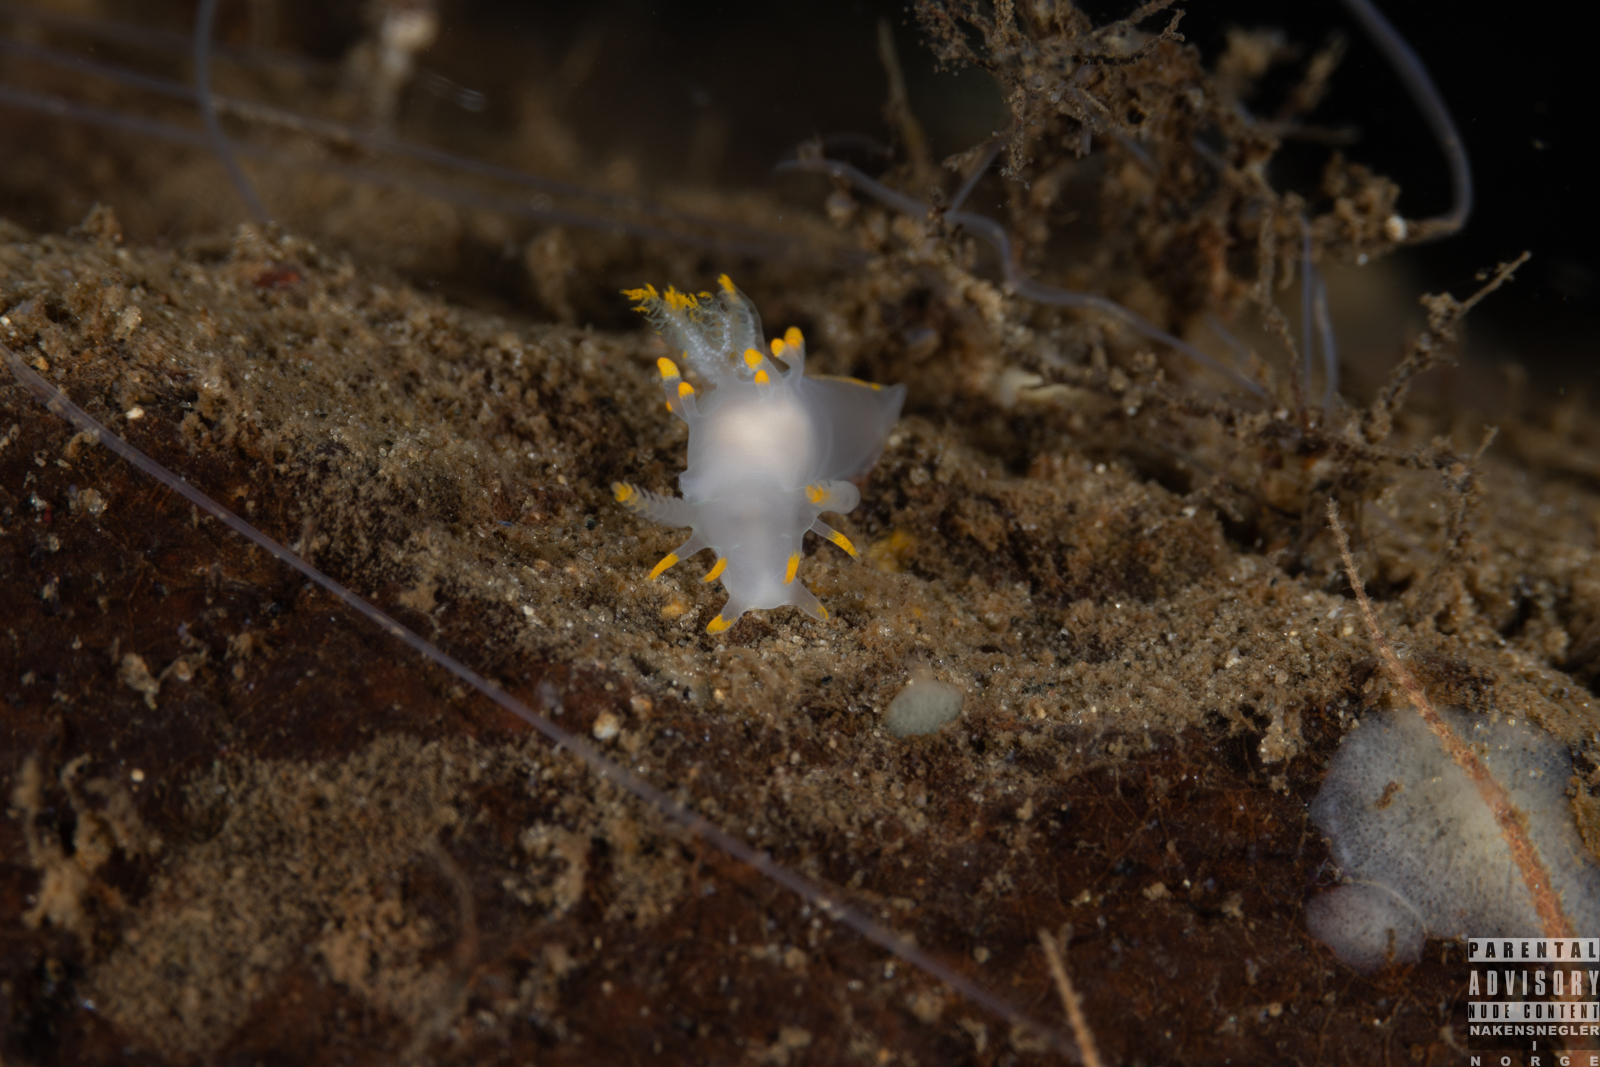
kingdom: Animalia
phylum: Mollusca
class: Gastropoda
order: Nudibranchia
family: Goniodorididae
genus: Ancula
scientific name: Ancula gibbosa
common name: Atlantic ancula
